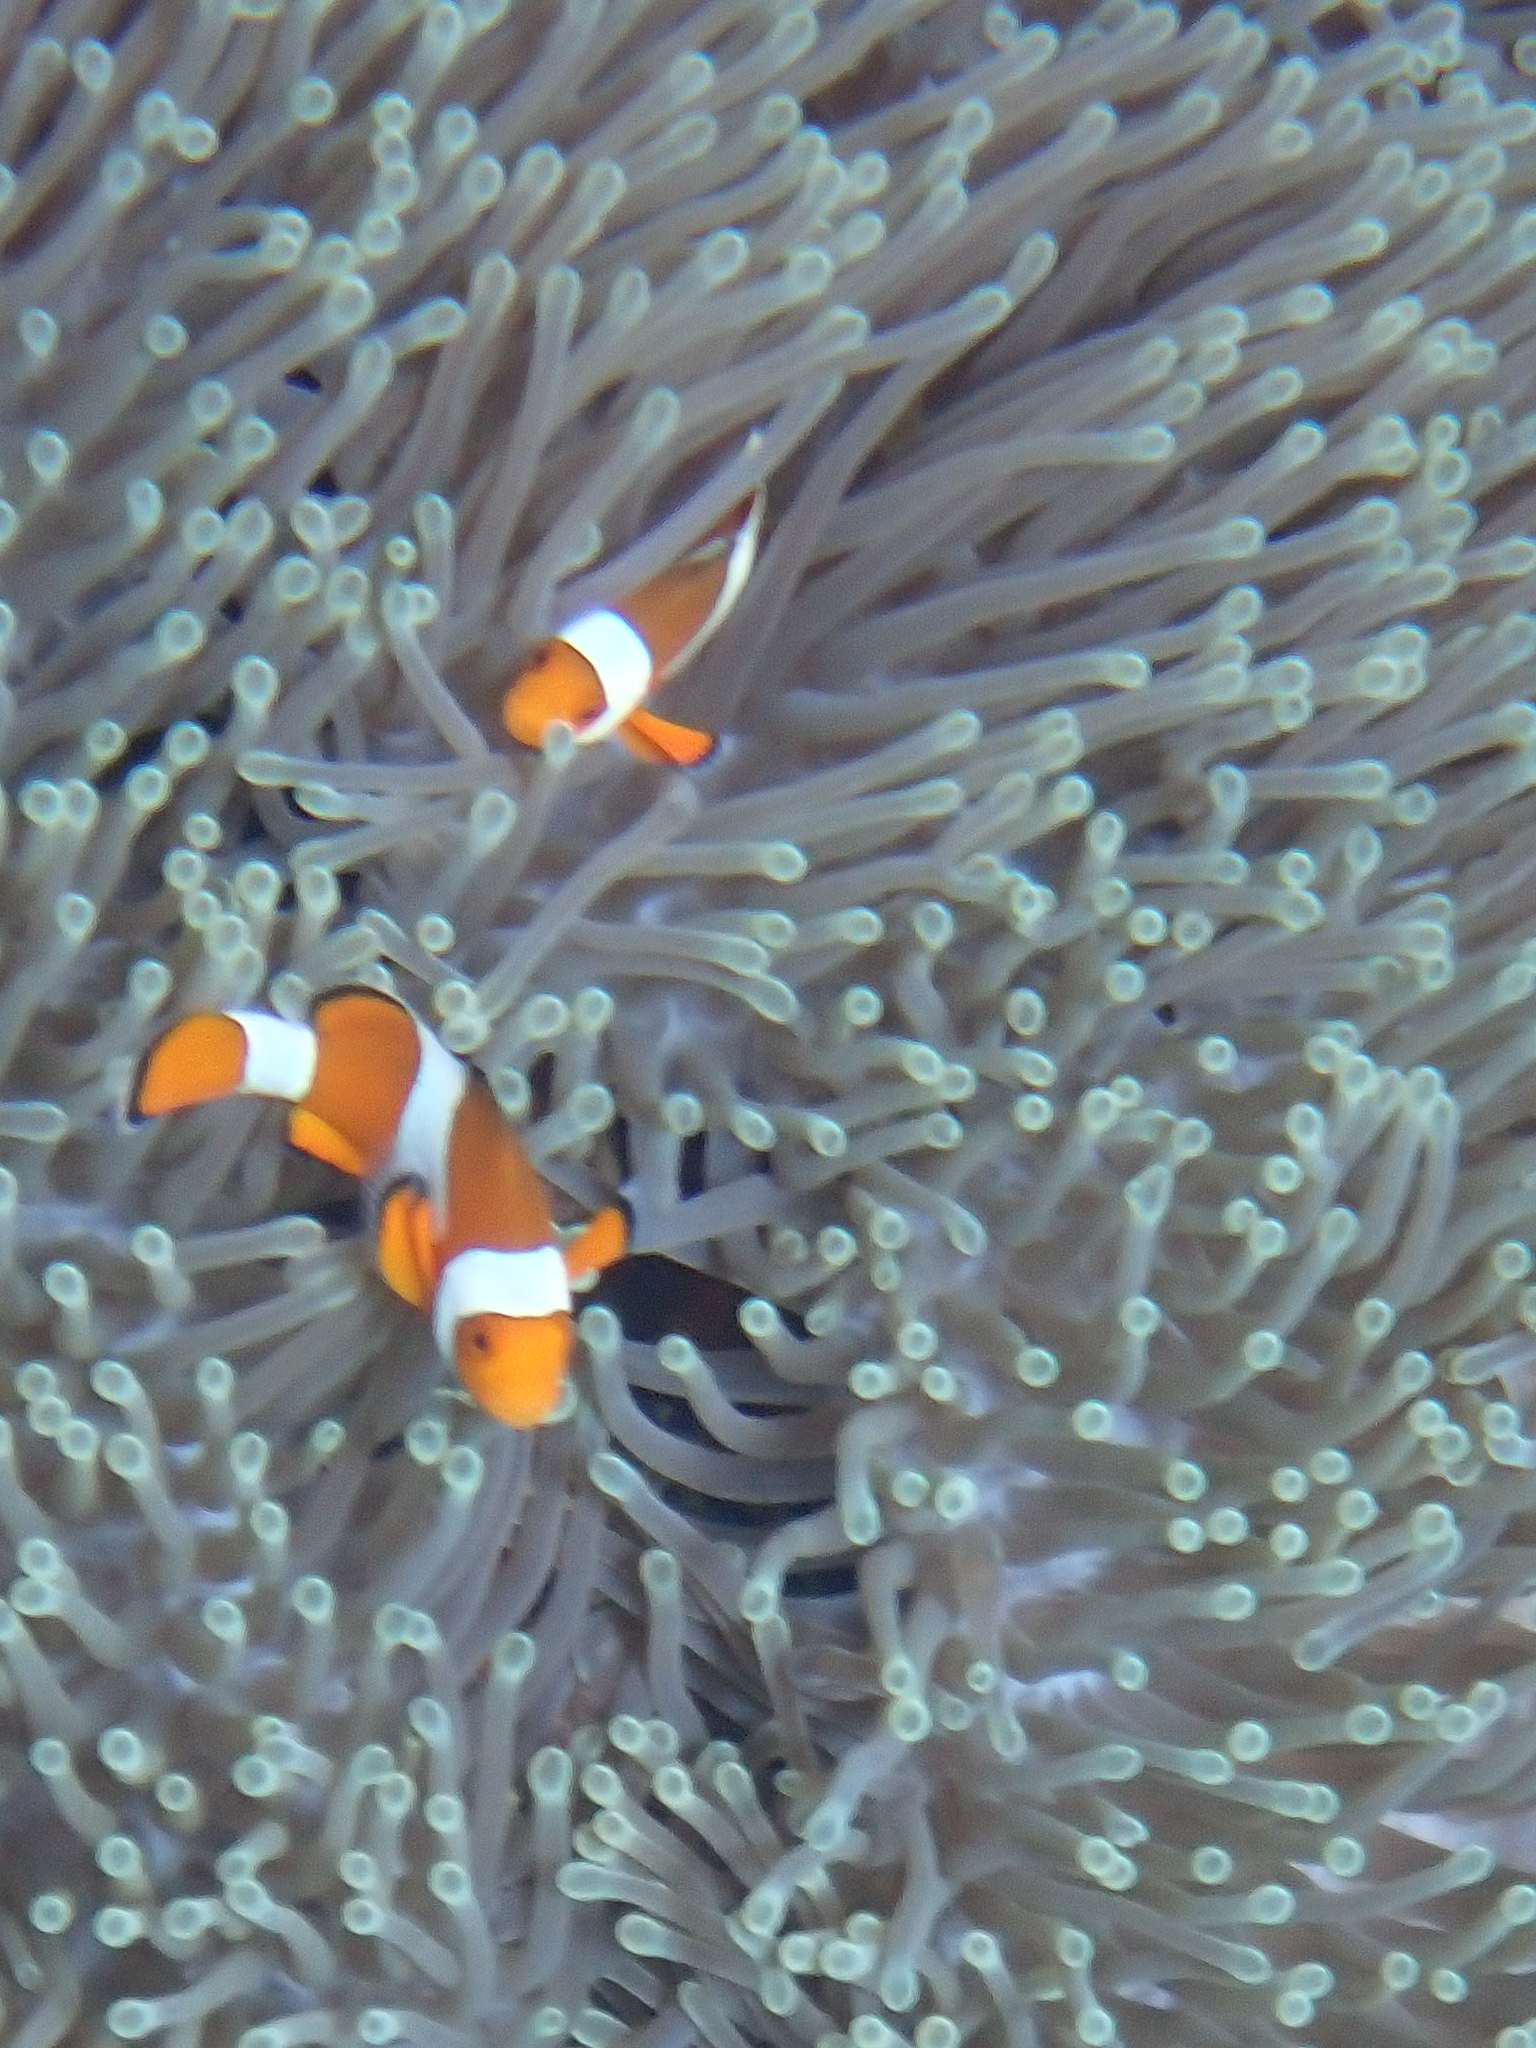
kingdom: Animalia
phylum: Chordata
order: Perciformes
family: Pomacentridae
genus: Amphiprion
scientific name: Amphiprion ocellaris
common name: Clown anemonefish
